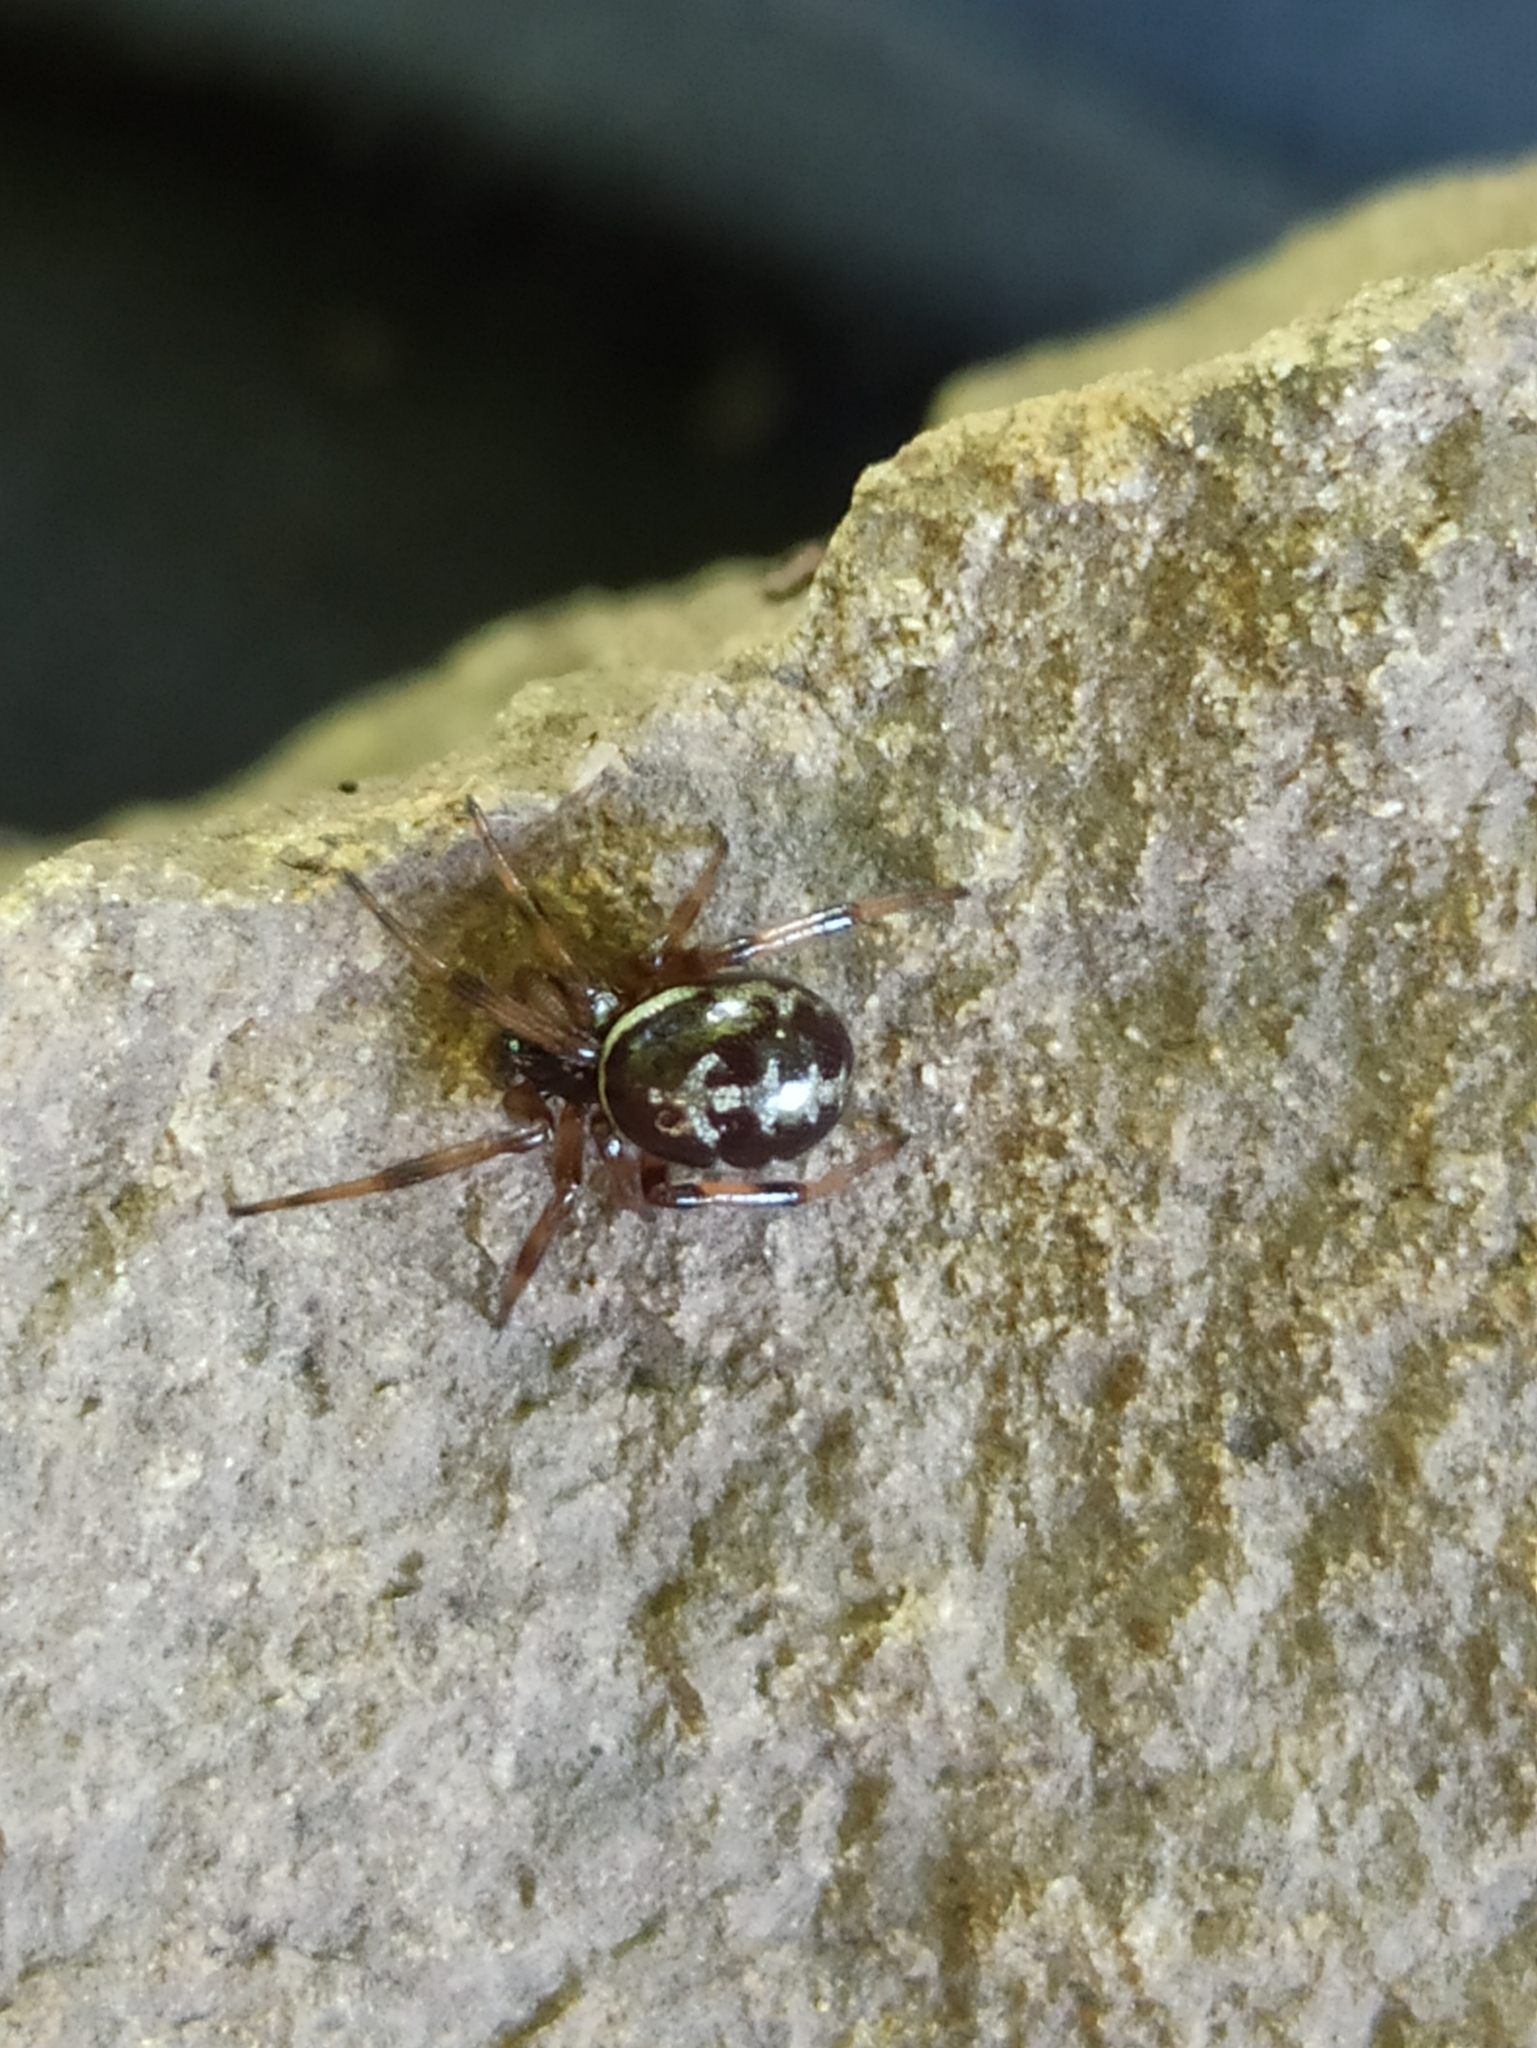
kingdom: Animalia
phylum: Arthropoda
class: Arachnida
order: Araneae
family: Theridiidae
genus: Steatoda
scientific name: Steatoda paykulliana
